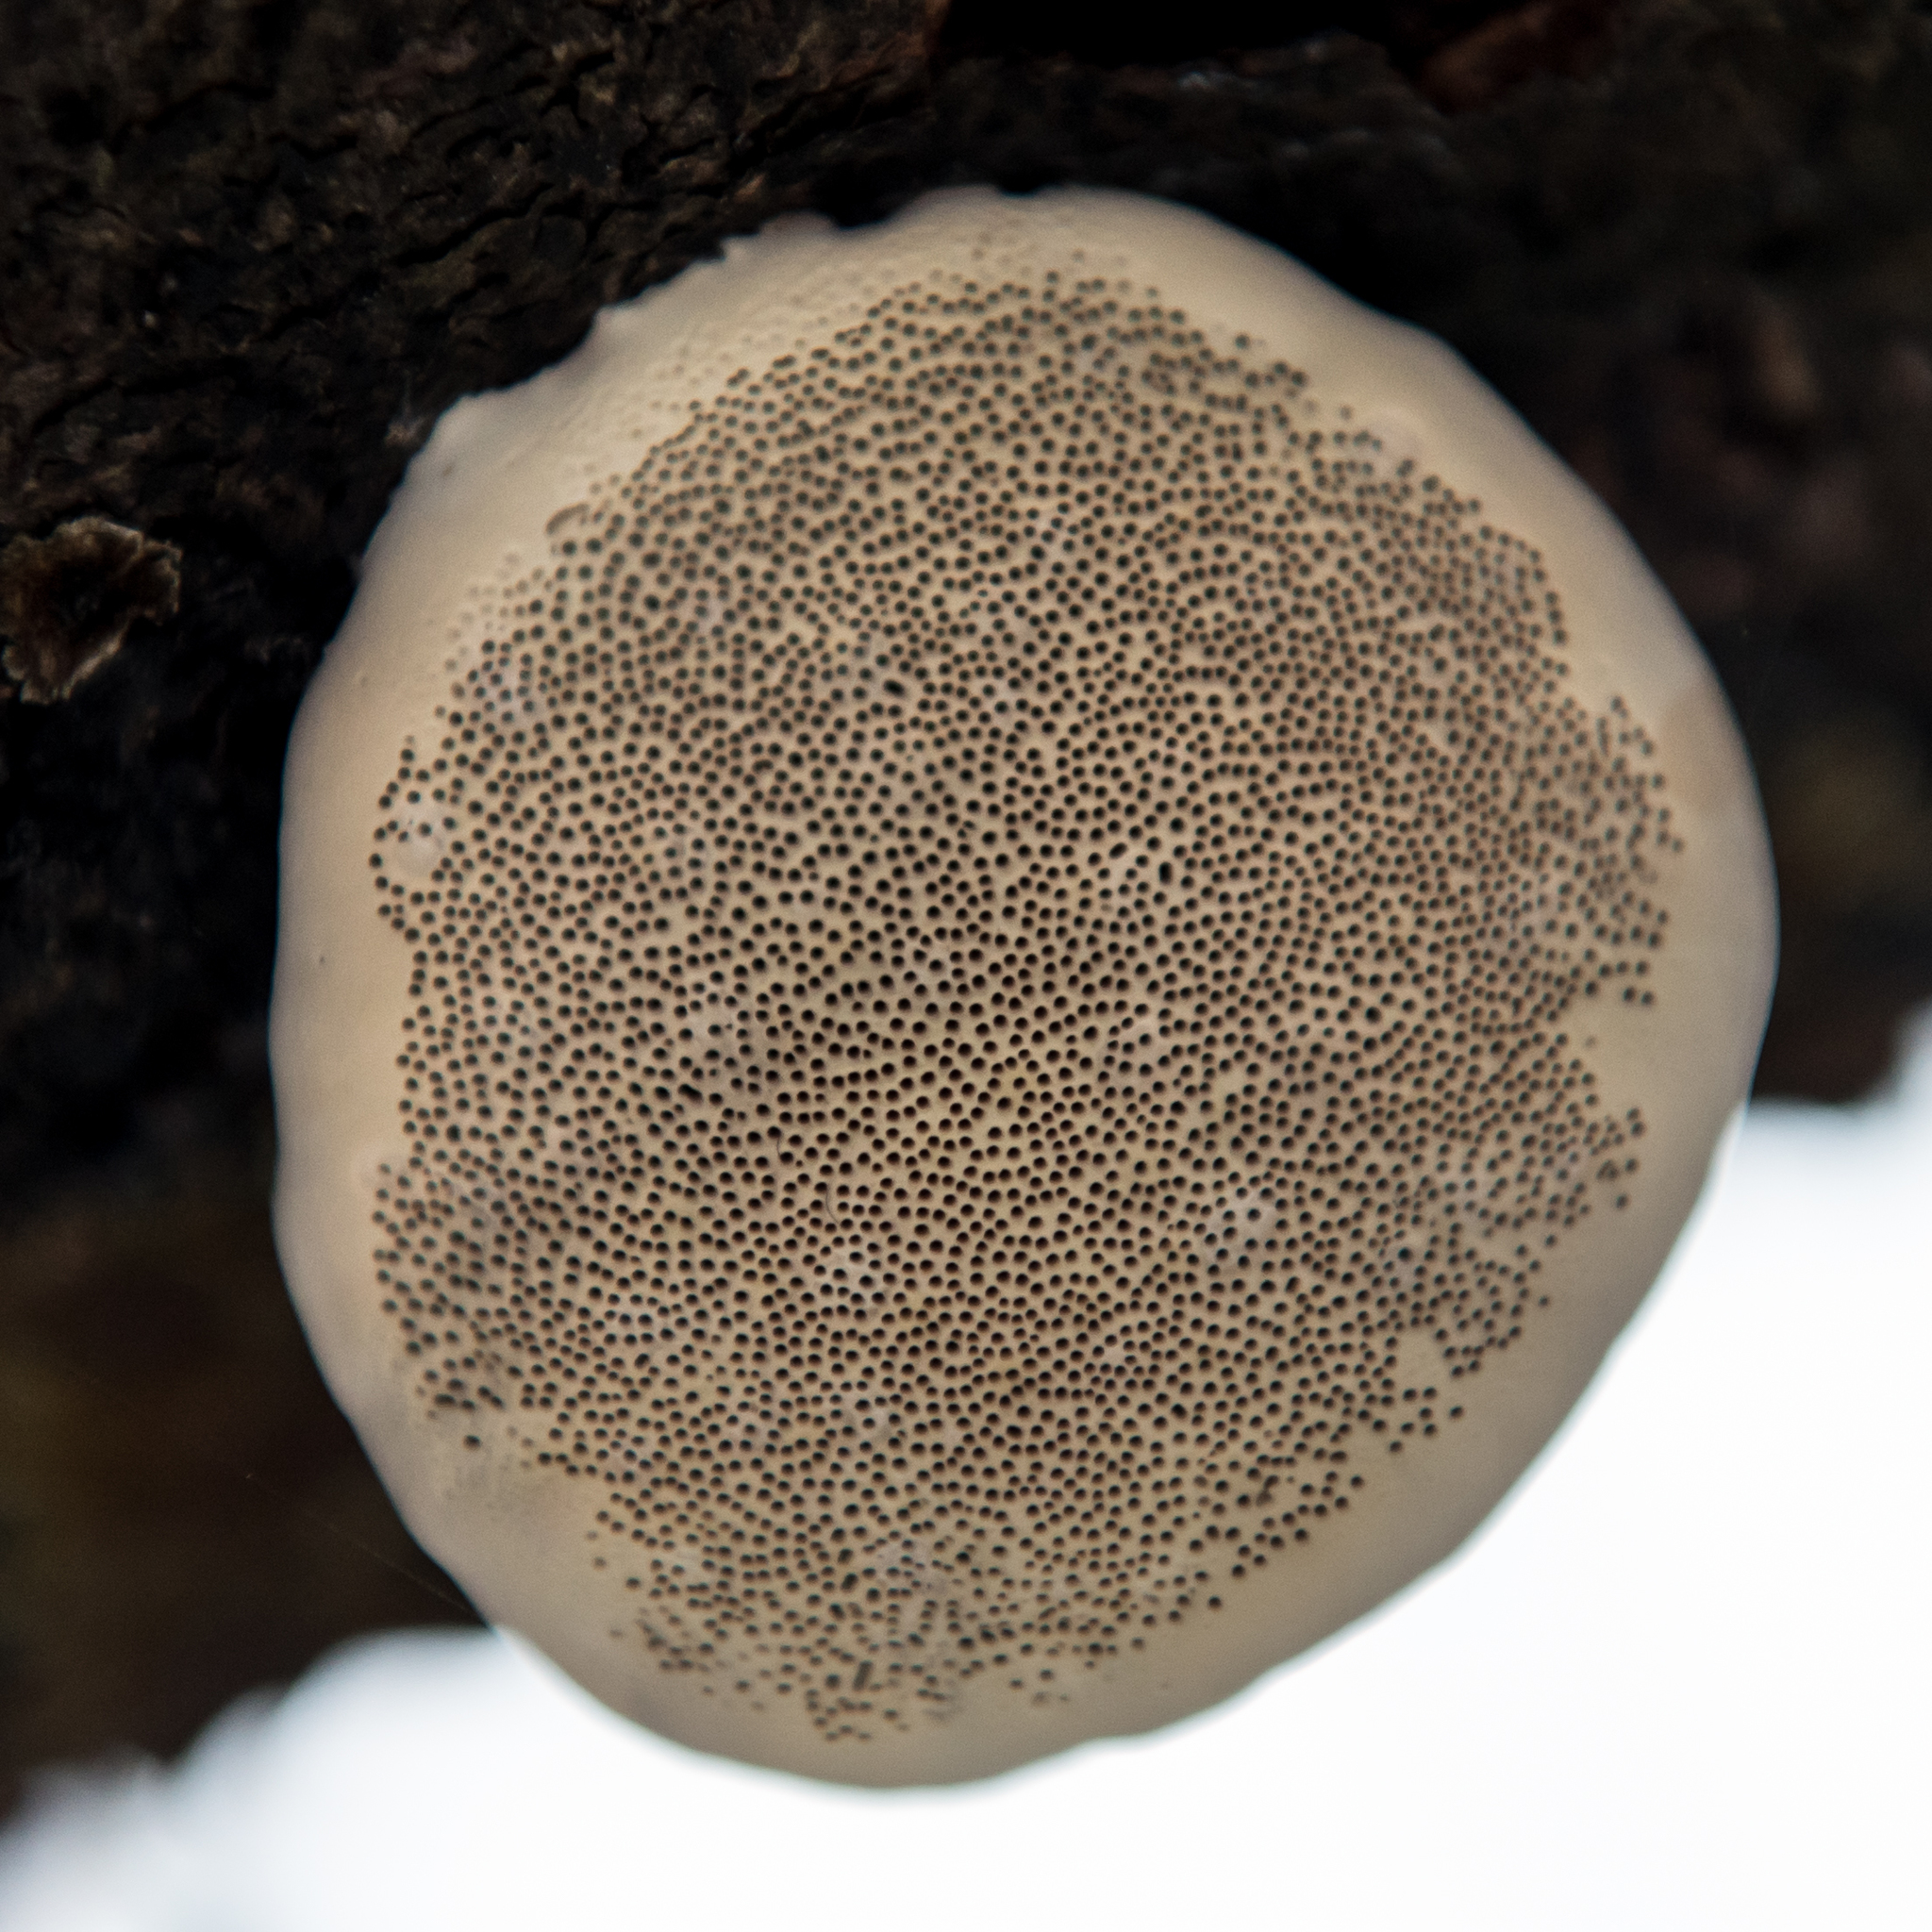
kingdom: Fungi
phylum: Basidiomycota
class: Agaricomycetes
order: Polyporales
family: Fomitopsidaceae
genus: Fomitopsis
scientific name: Fomitopsis pinicola
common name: Red-belted bracket
